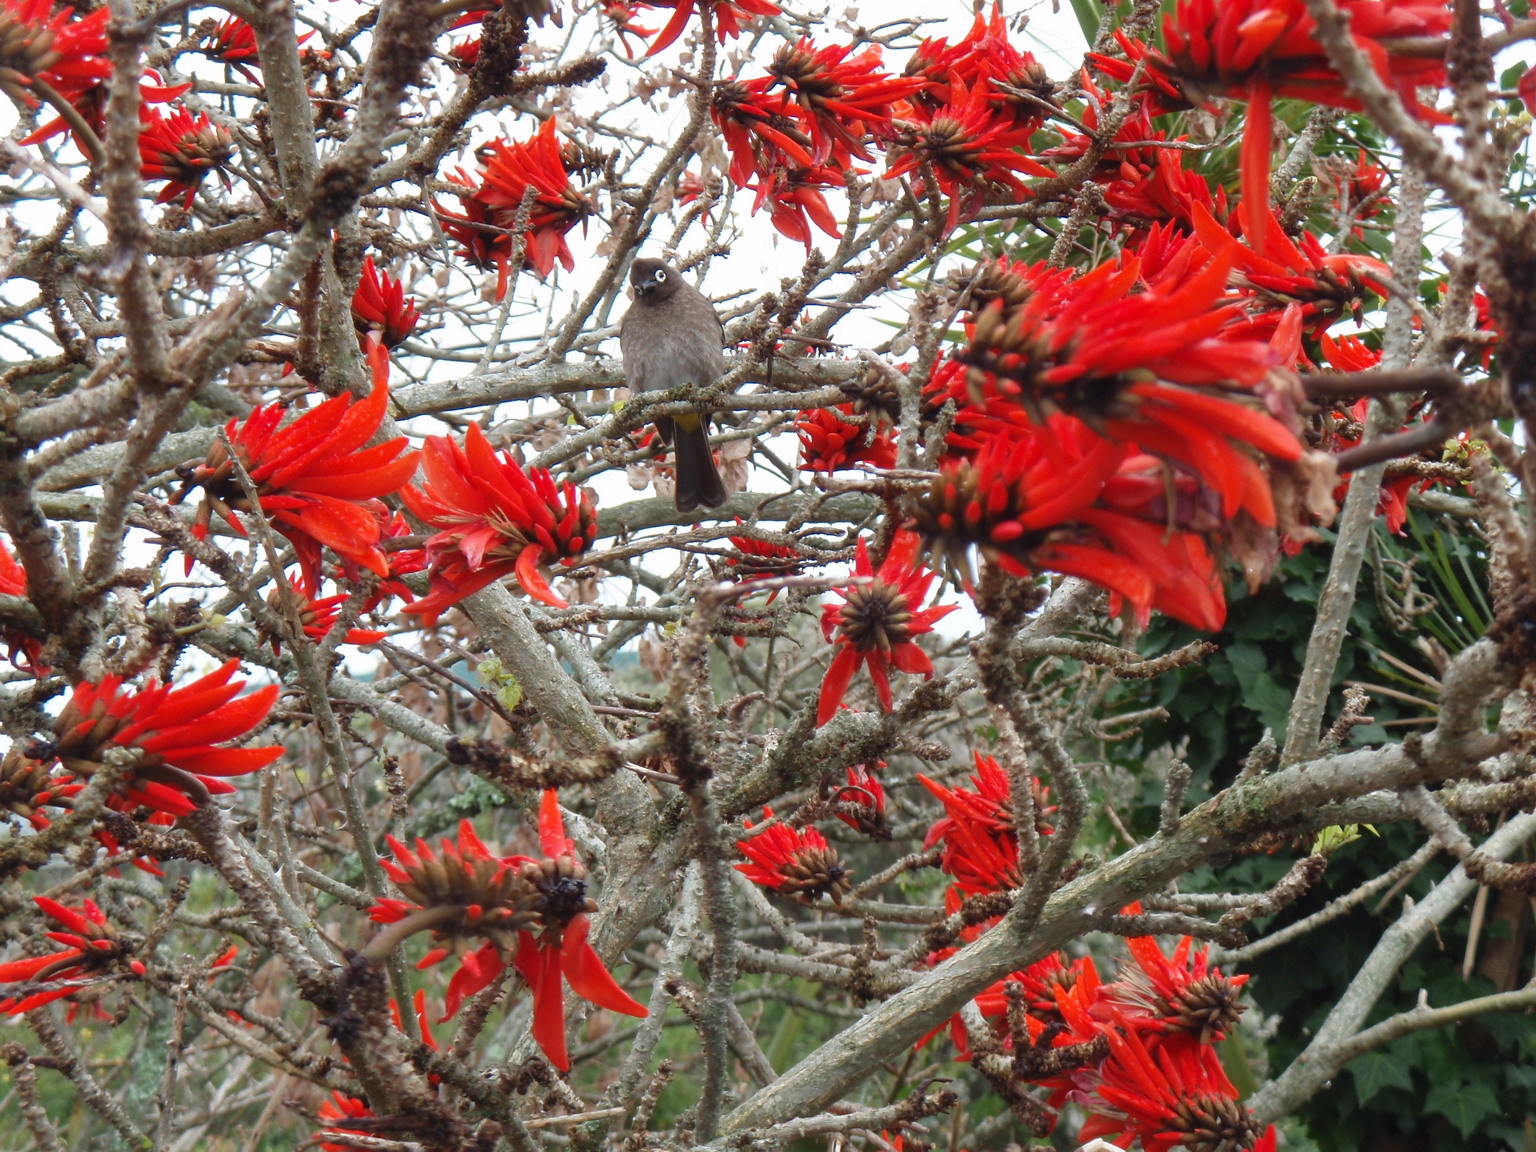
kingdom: Animalia
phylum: Chordata
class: Aves
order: Passeriformes
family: Pycnonotidae
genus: Pycnonotus
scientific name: Pycnonotus capensis
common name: Cape bulbul
